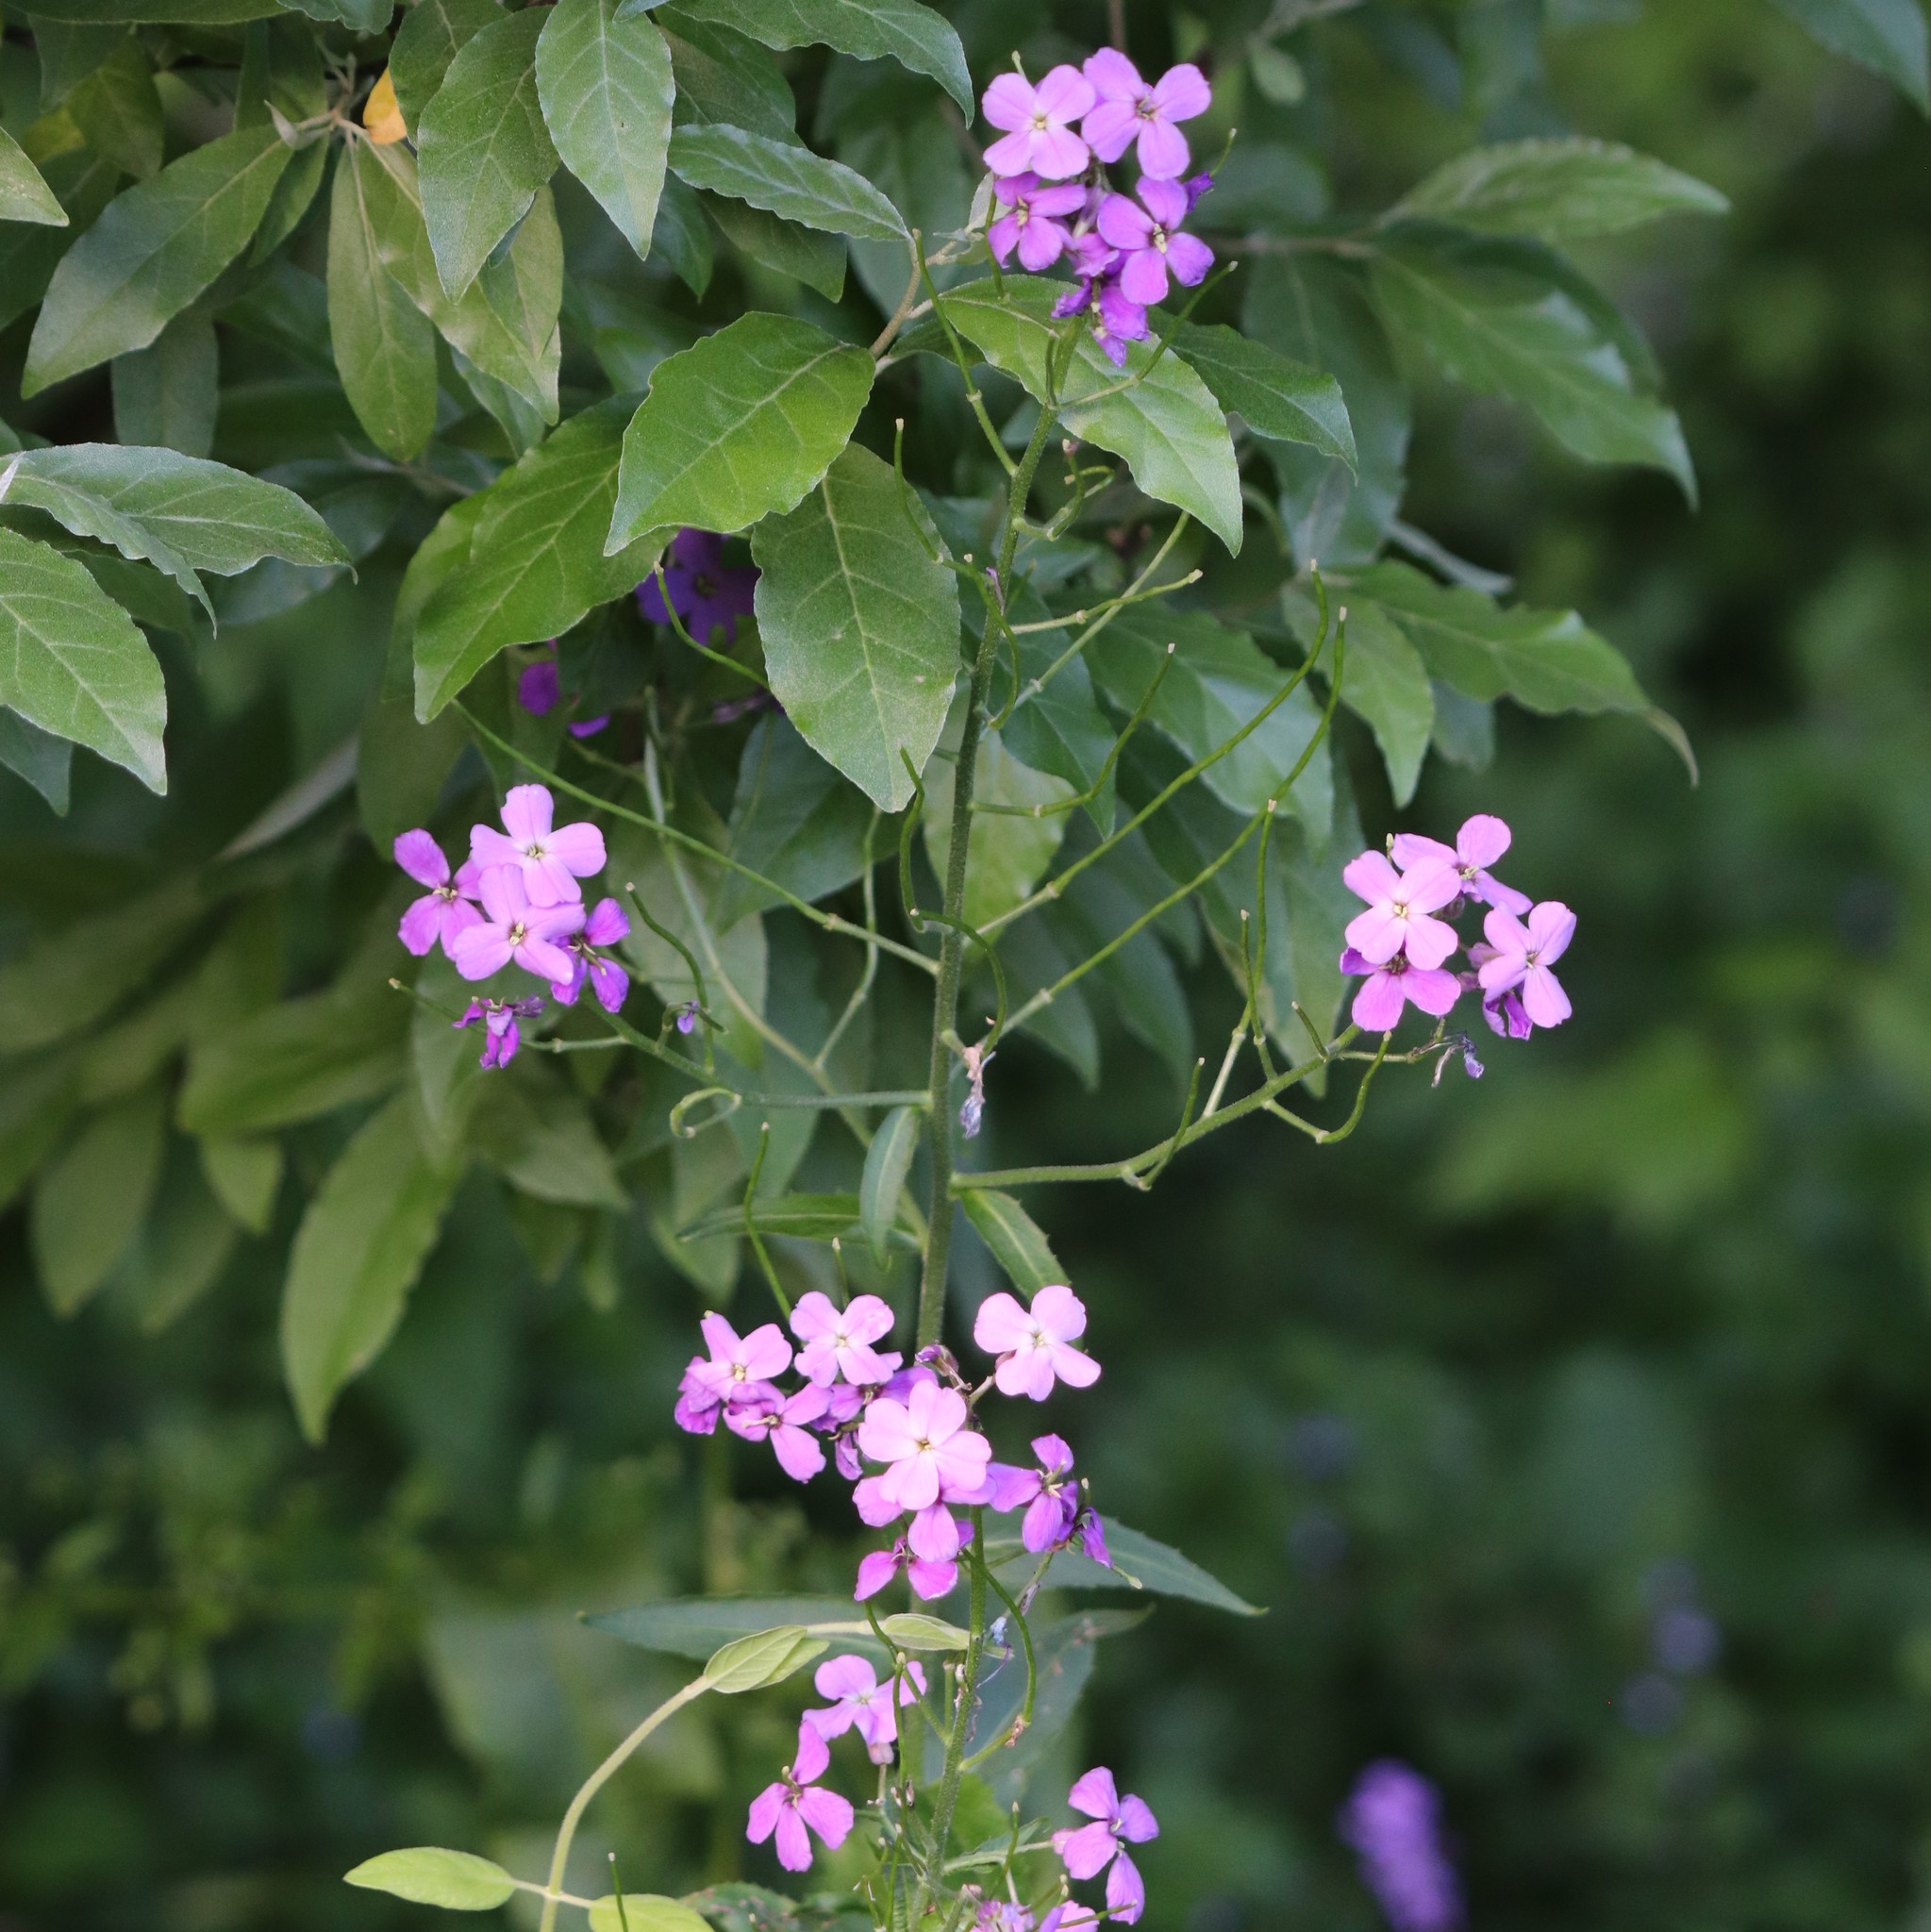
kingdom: Plantae
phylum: Tracheophyta
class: Magnoliopsida
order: Brassicales
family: Brassicaceae
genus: Hesperis
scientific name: Hesperis matronalis
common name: Dame's-violet
